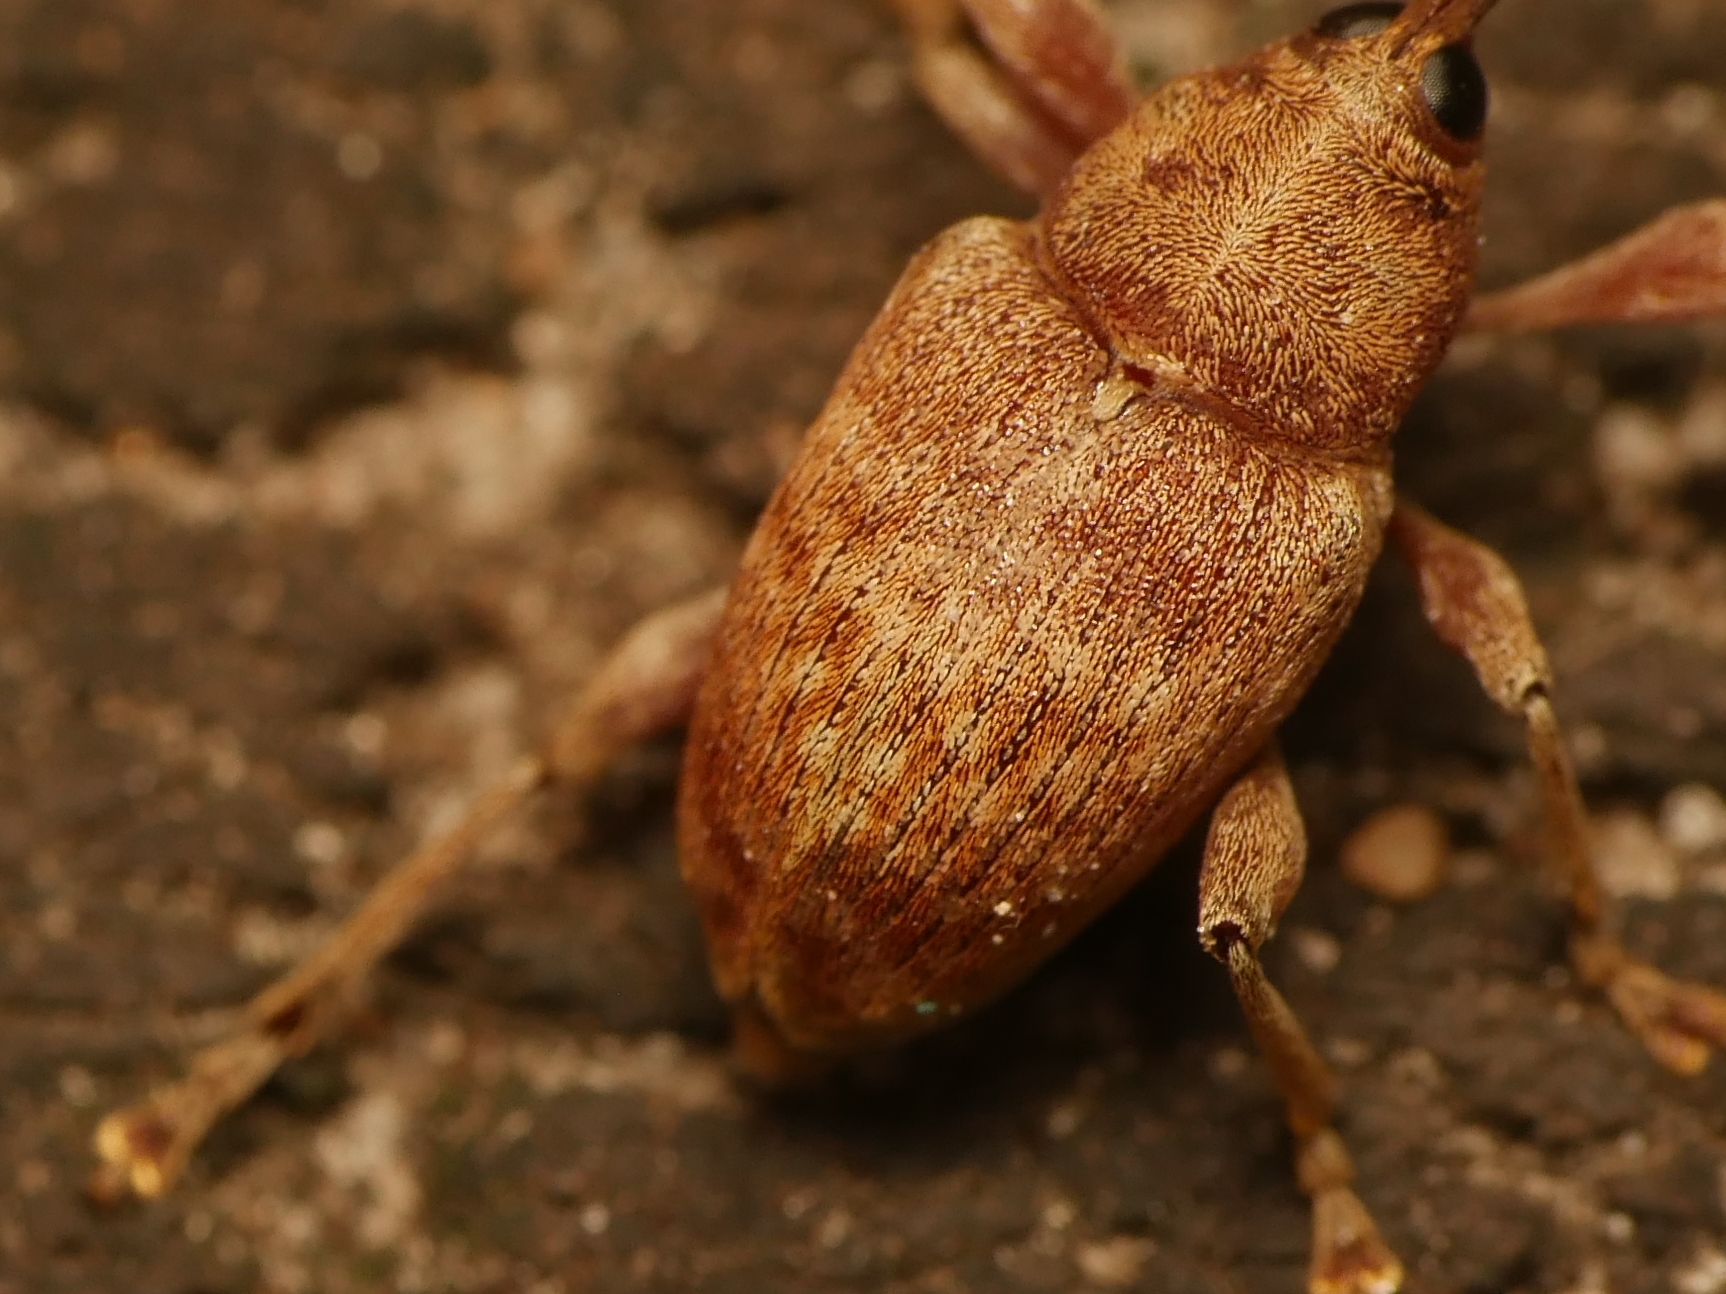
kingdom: Animalia
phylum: Arthropoda
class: Insecta
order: Coleoptera
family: Curculionidae
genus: Curculio
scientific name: Curculio elephas
